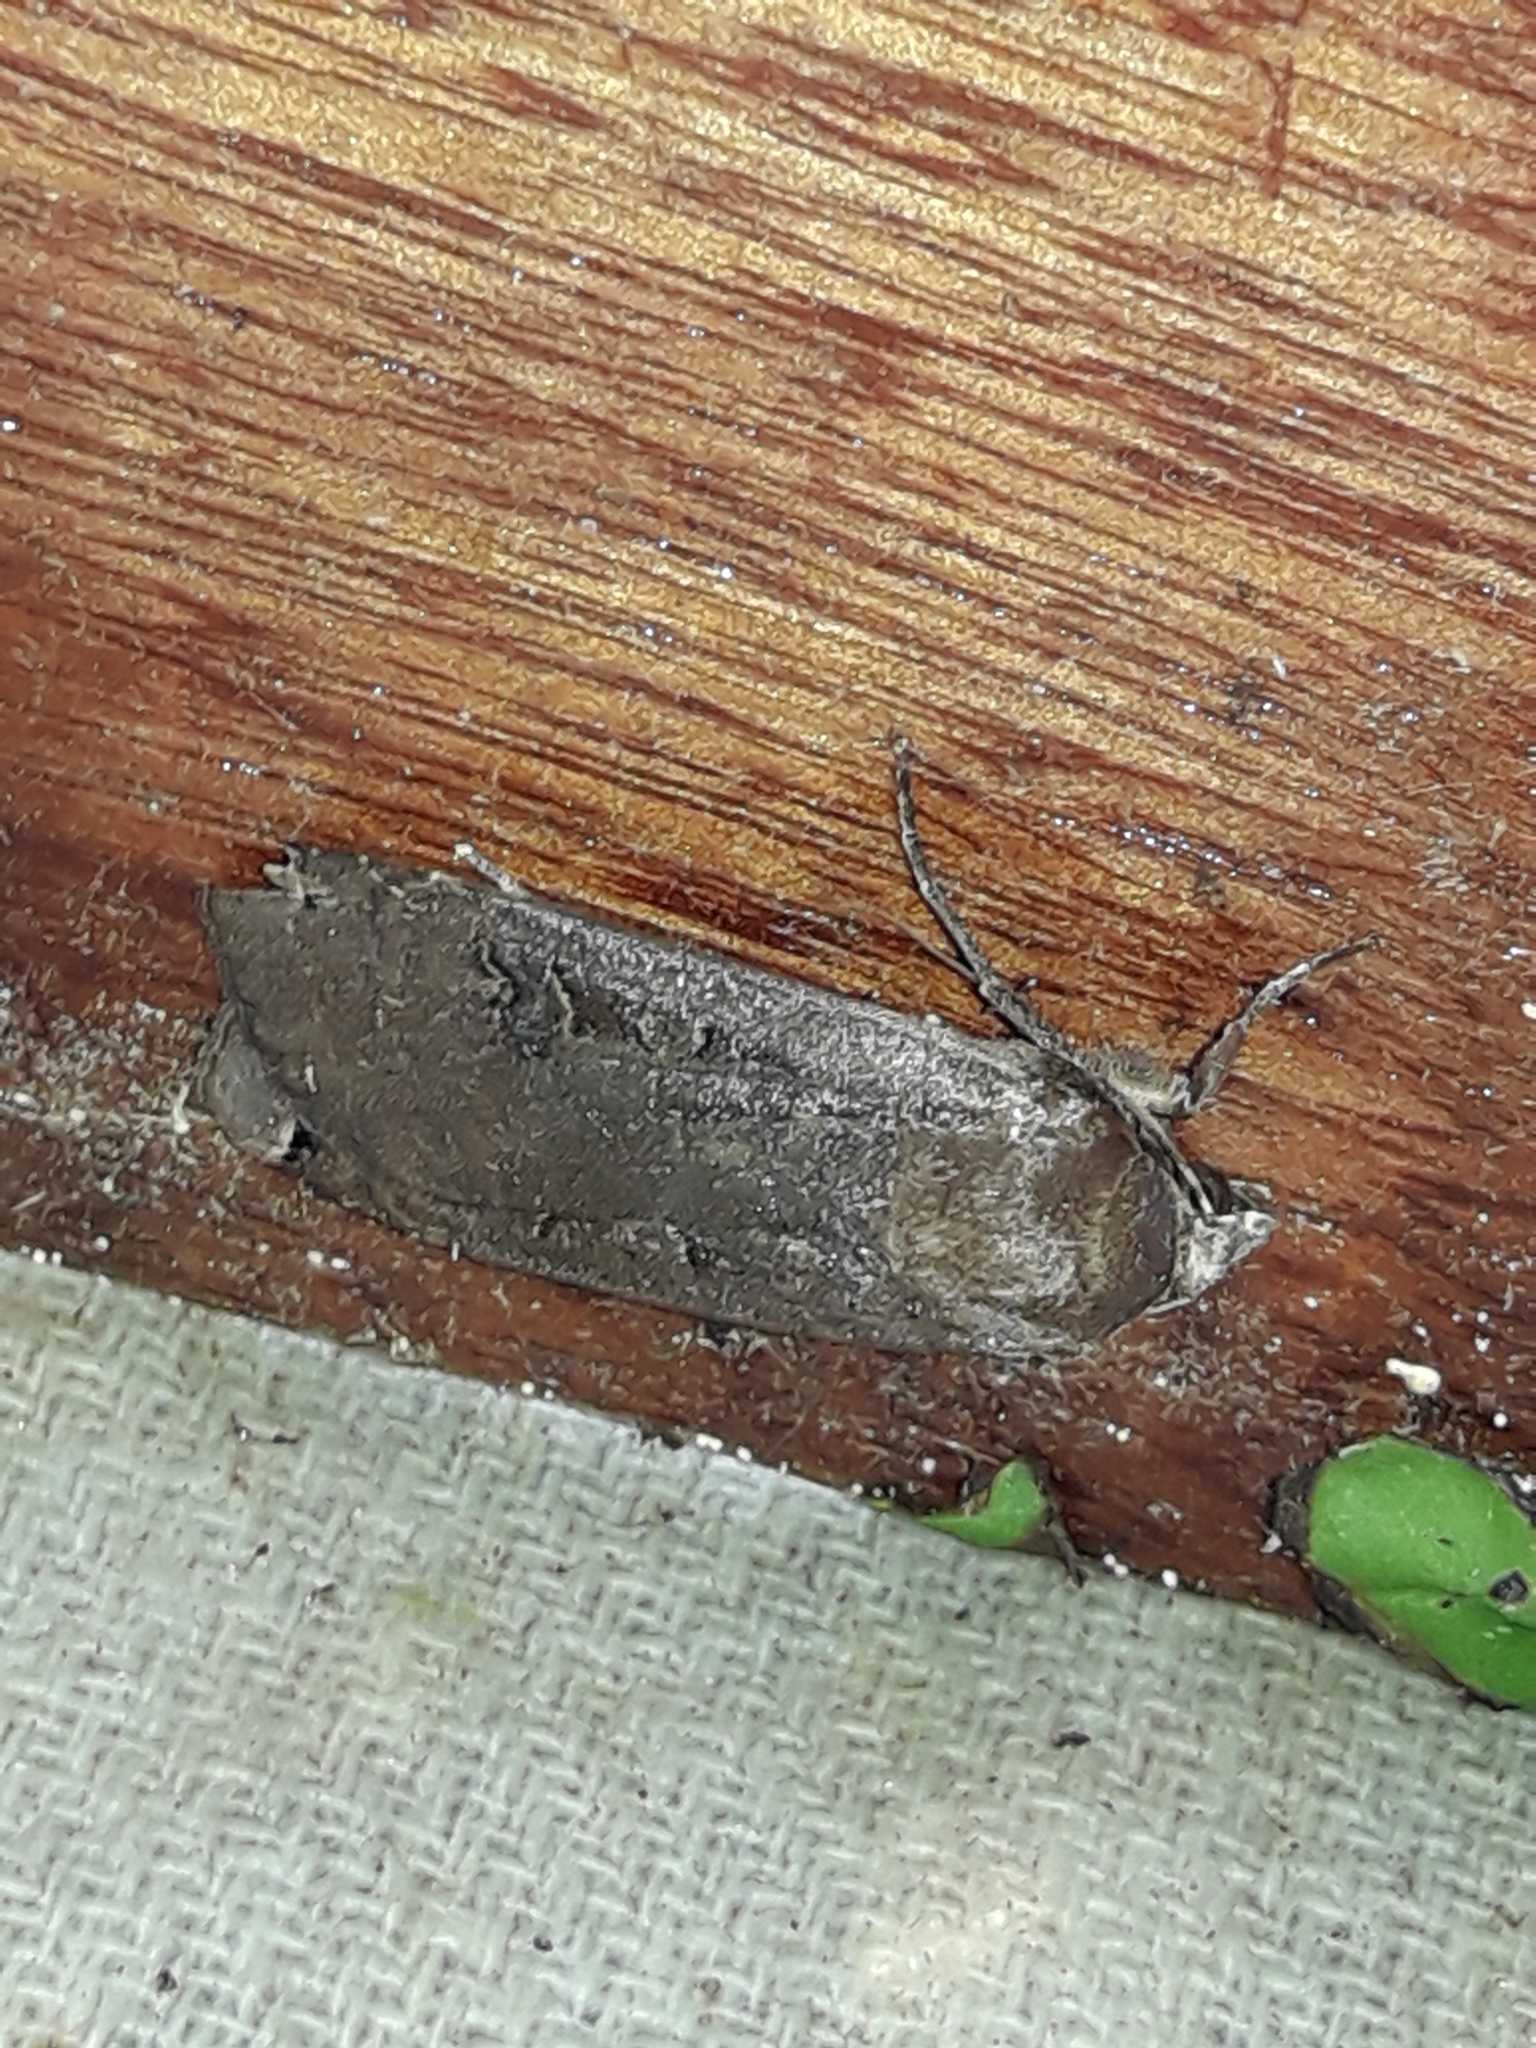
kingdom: Animalia
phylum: Arthropoda
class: Insecta
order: Lepidoptera
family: Noctuidae
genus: Noctua
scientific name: Noctua pronuba
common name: Large yellow underwing
